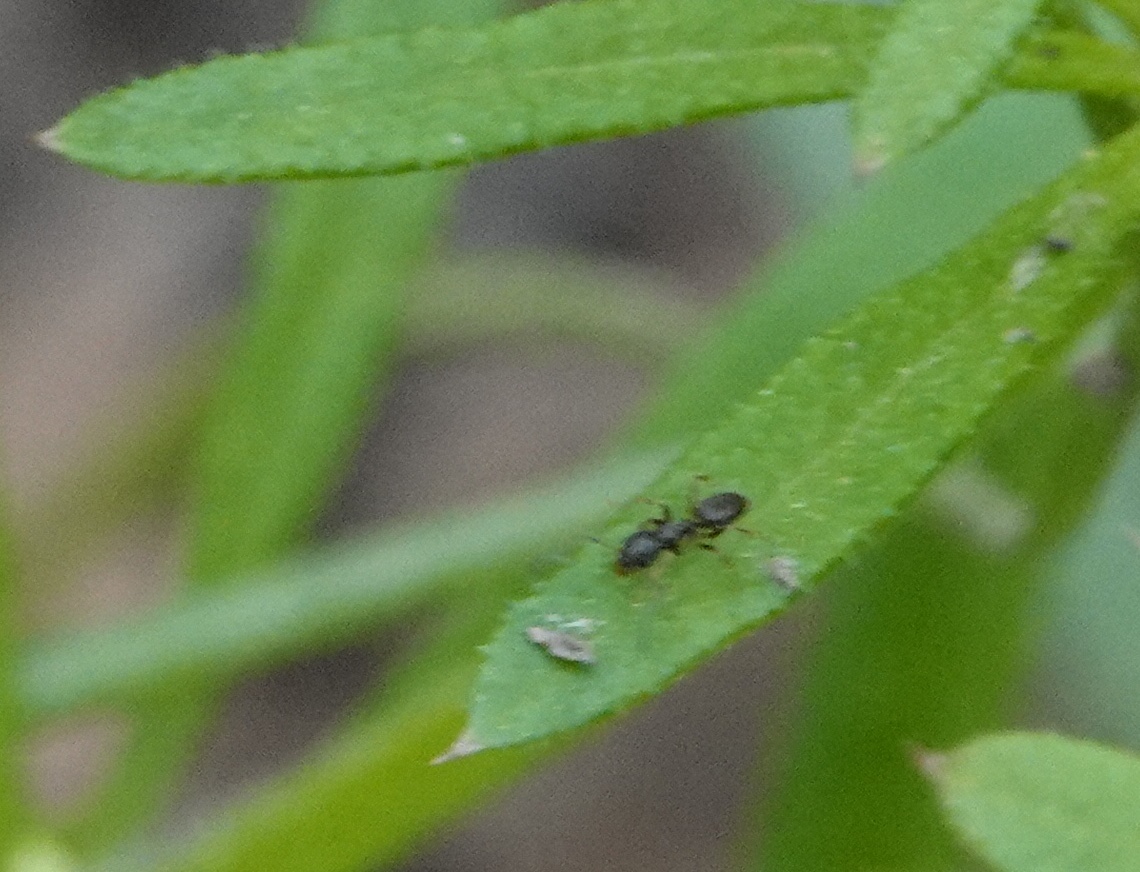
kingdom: Animalia
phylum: Arthropoda
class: Insecta
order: Hymenoptera
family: Formicidae
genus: Tapinoma
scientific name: Tapinoma sessile
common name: Odorous house ant
